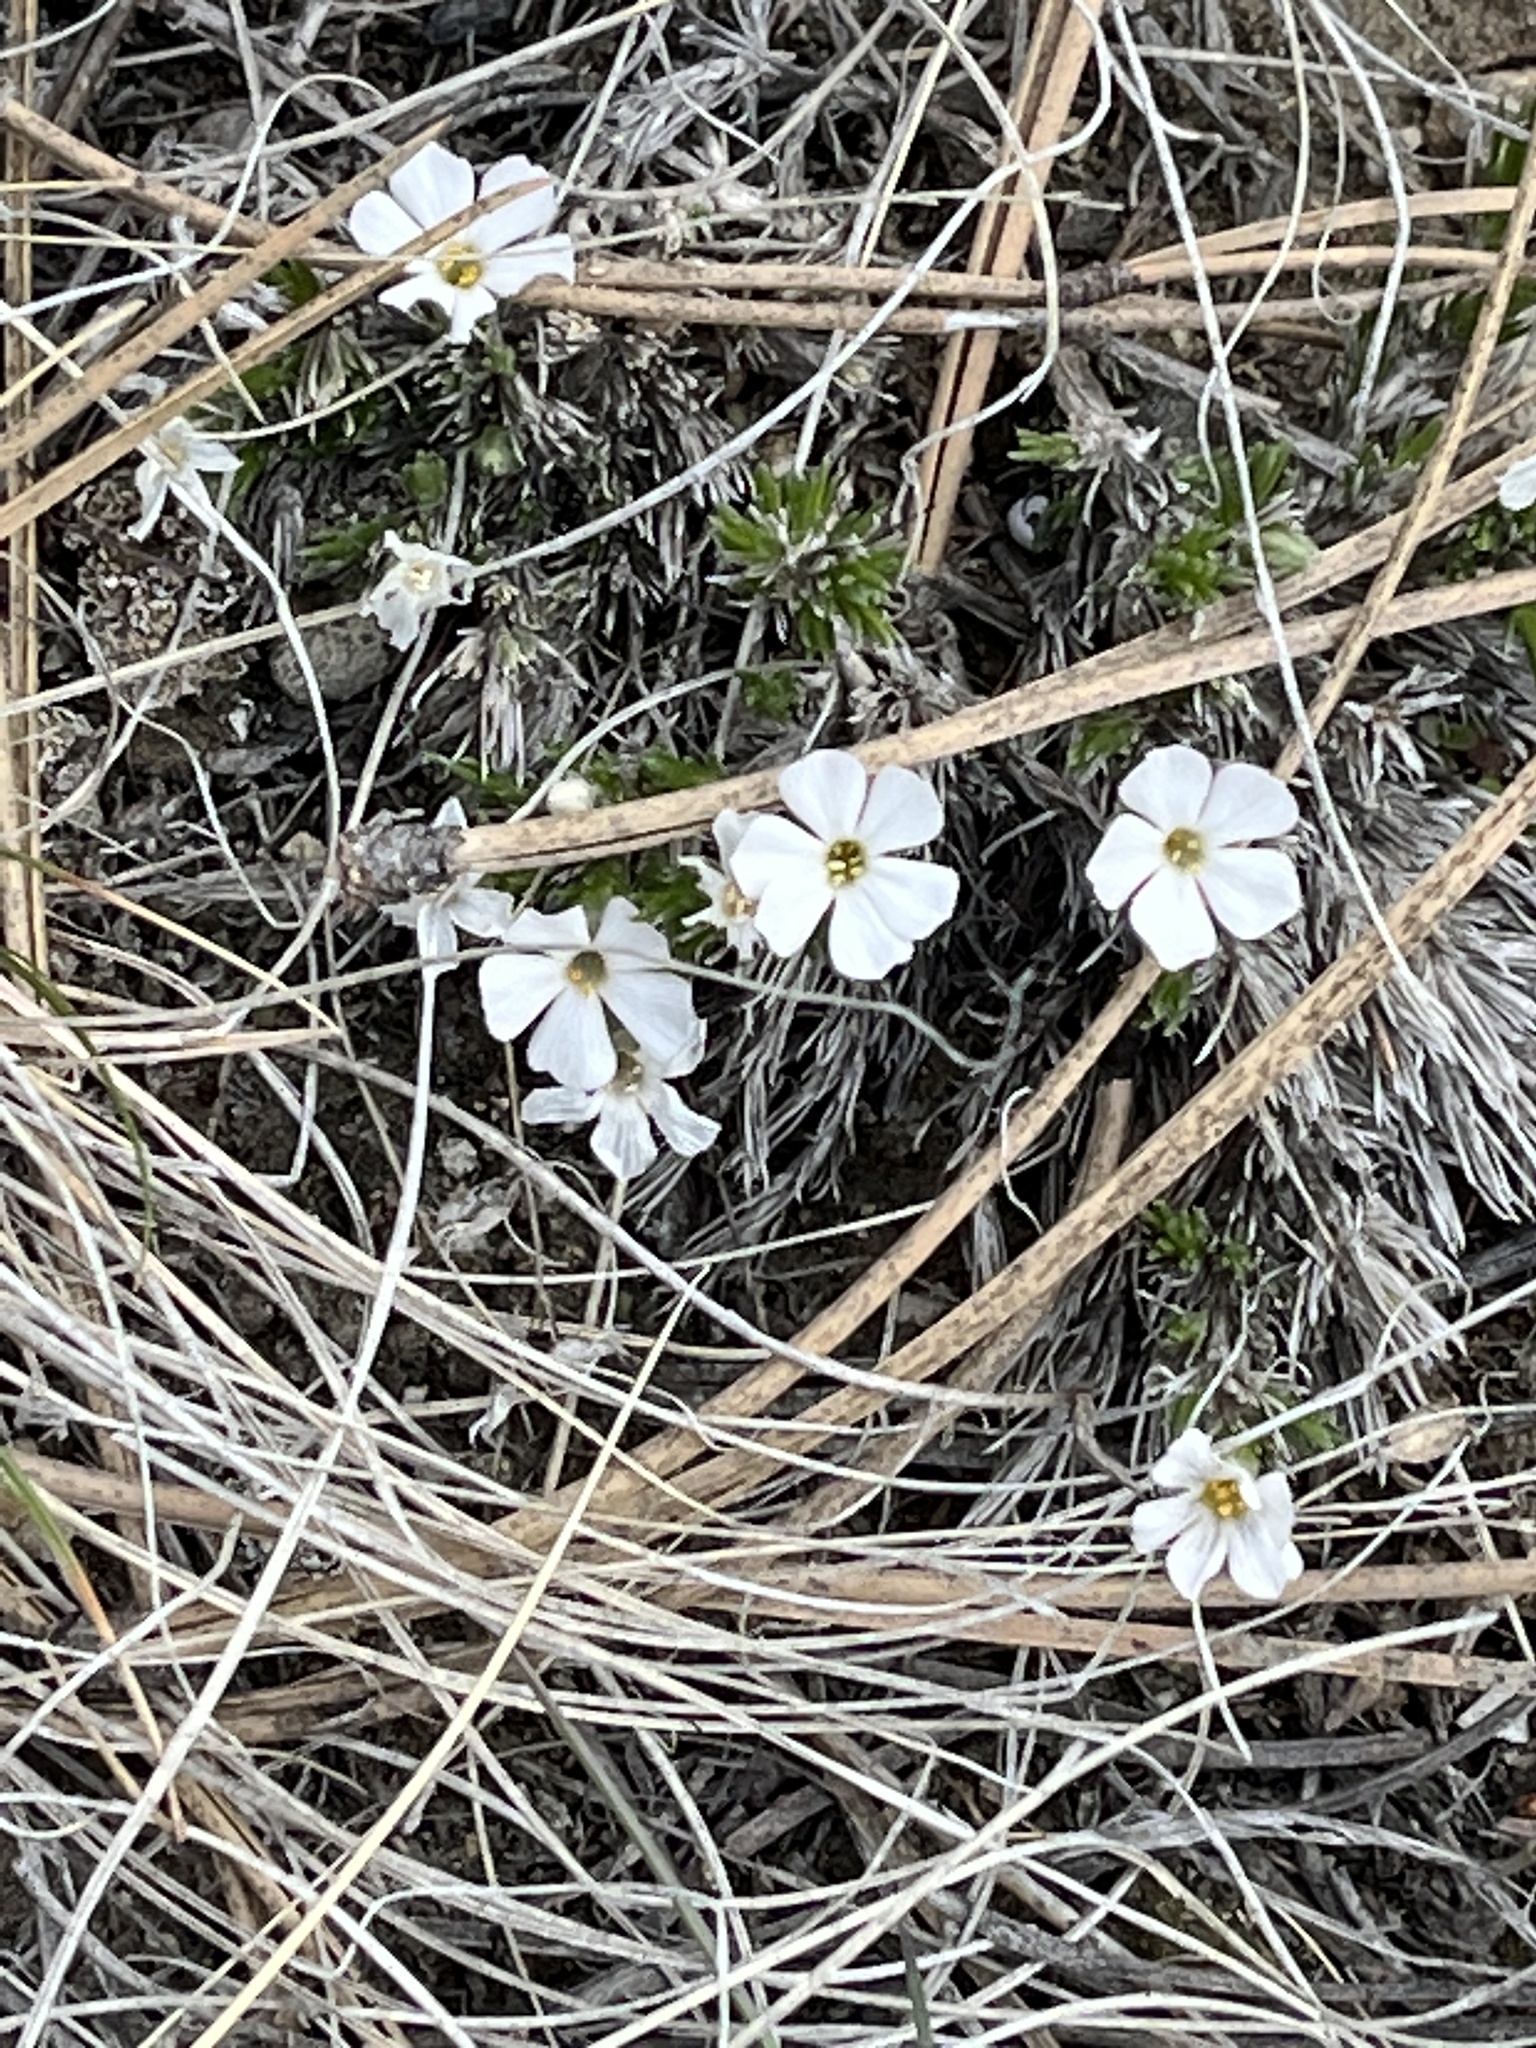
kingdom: Plantae
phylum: Tracheophyta
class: Magnoliopsida
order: Ericales
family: Polemoniaceae
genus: Phlox
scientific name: Phlox hoodii
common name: Moss phlox
